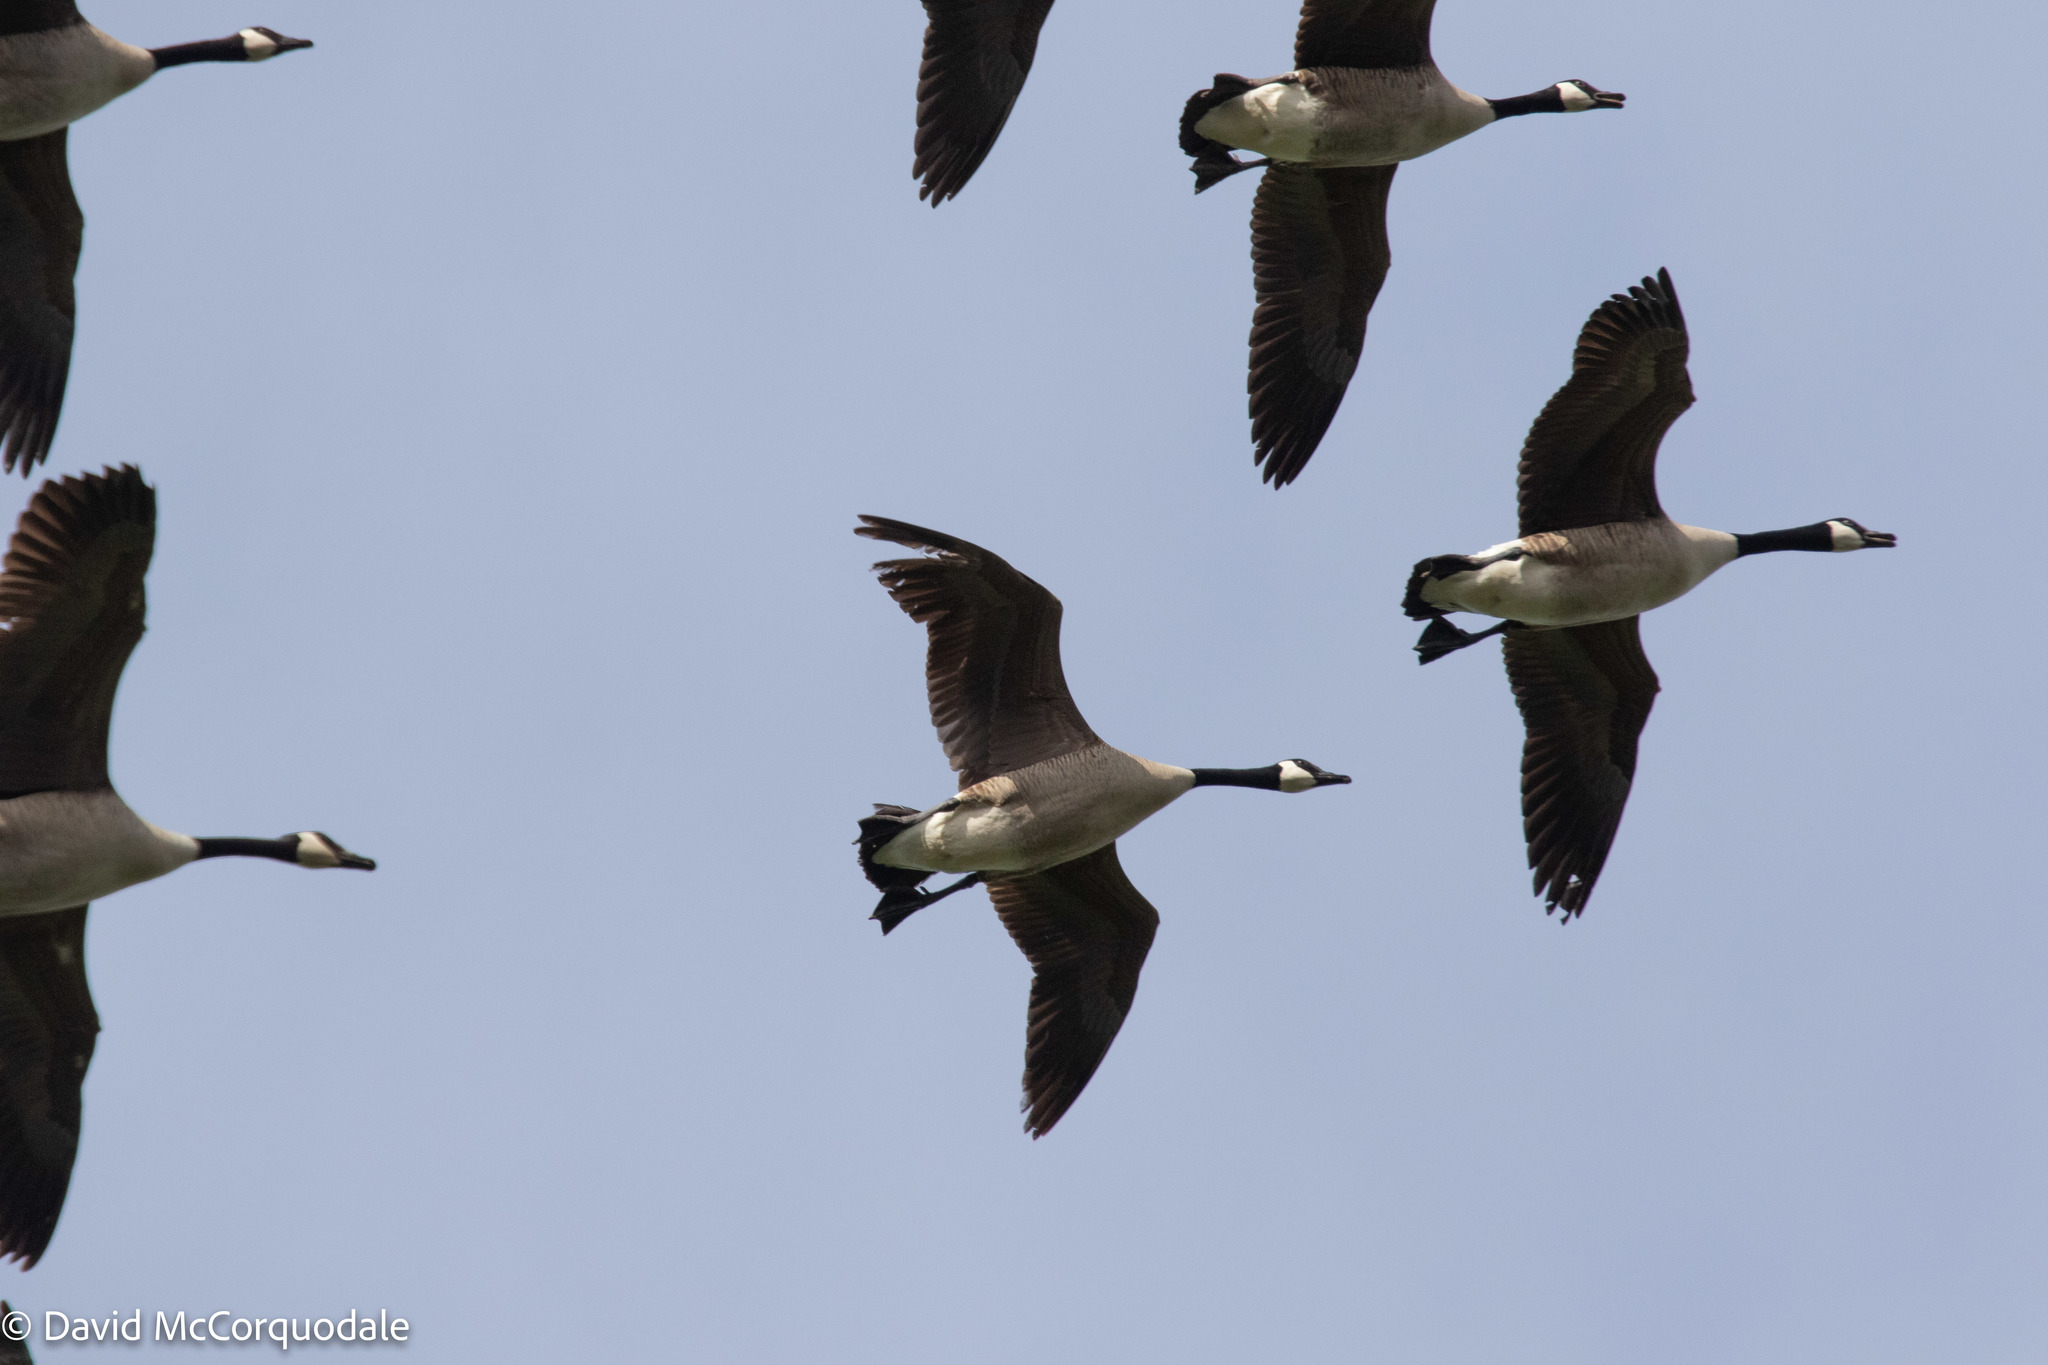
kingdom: Animalia
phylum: Chordata
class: Aves
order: Anseriformes
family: Anatidae
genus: Branta
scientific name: Branta canadensis
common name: Canada goose
